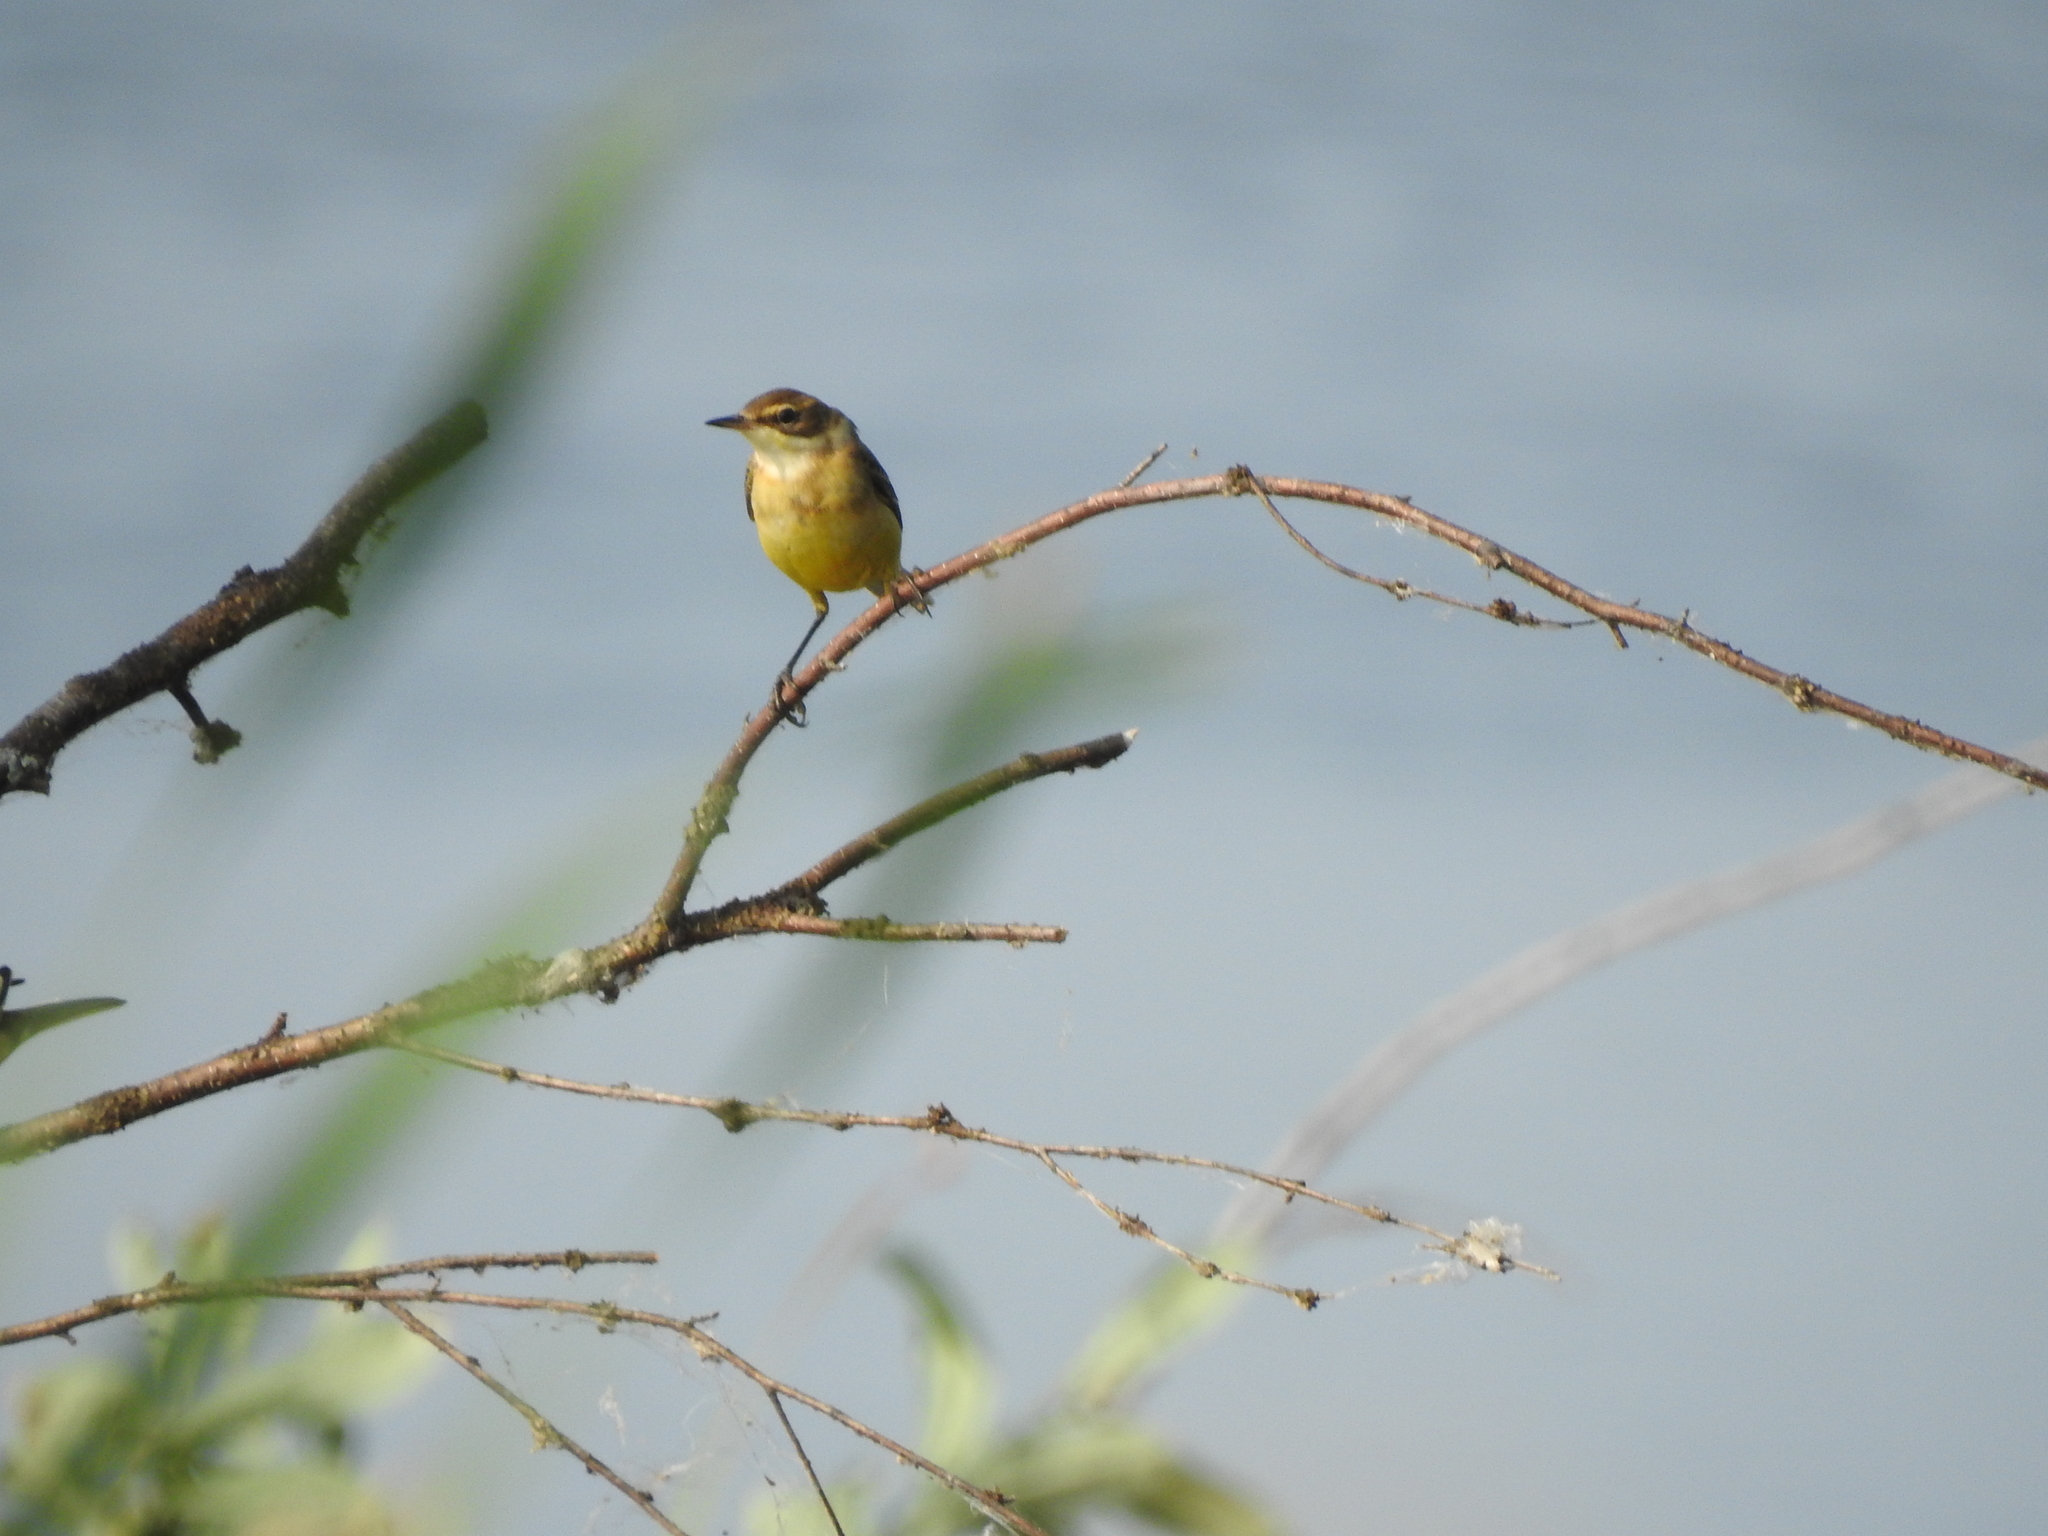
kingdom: Animalia
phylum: Chordata
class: Aves
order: Passeriformes
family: Motacillidae
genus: Motacilla
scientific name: Motacilla flava
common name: Western yellow wagtail
